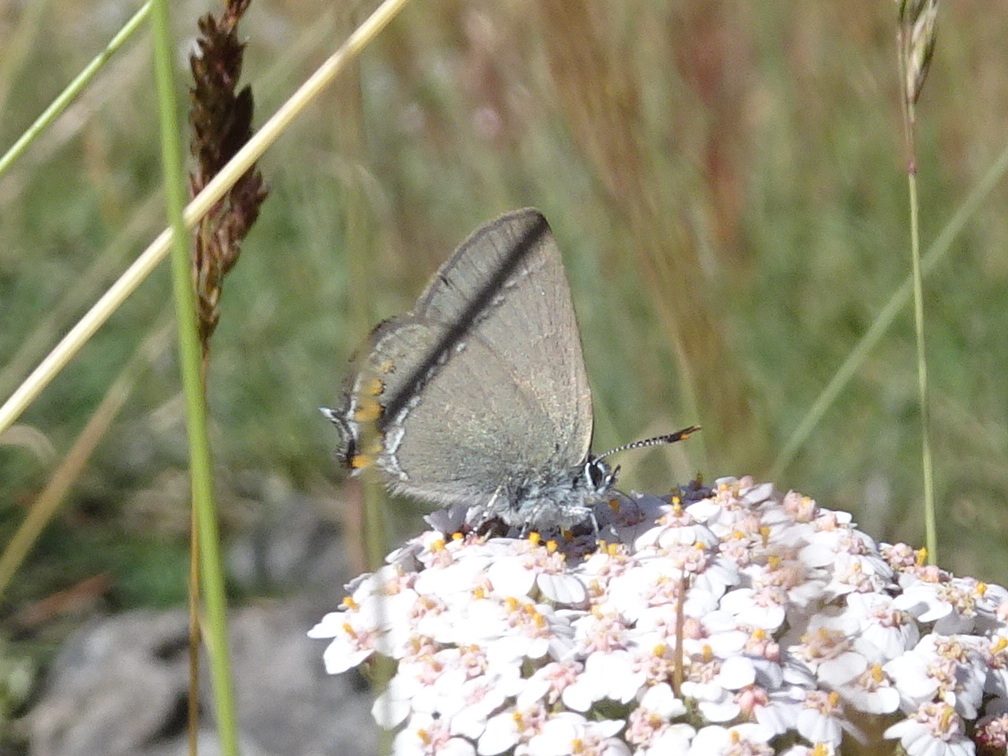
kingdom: Animalia
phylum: Arthropoda
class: Insecta
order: Lepidoptera
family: Lycaenidae
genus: Strymon
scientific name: Strymon acaciae
